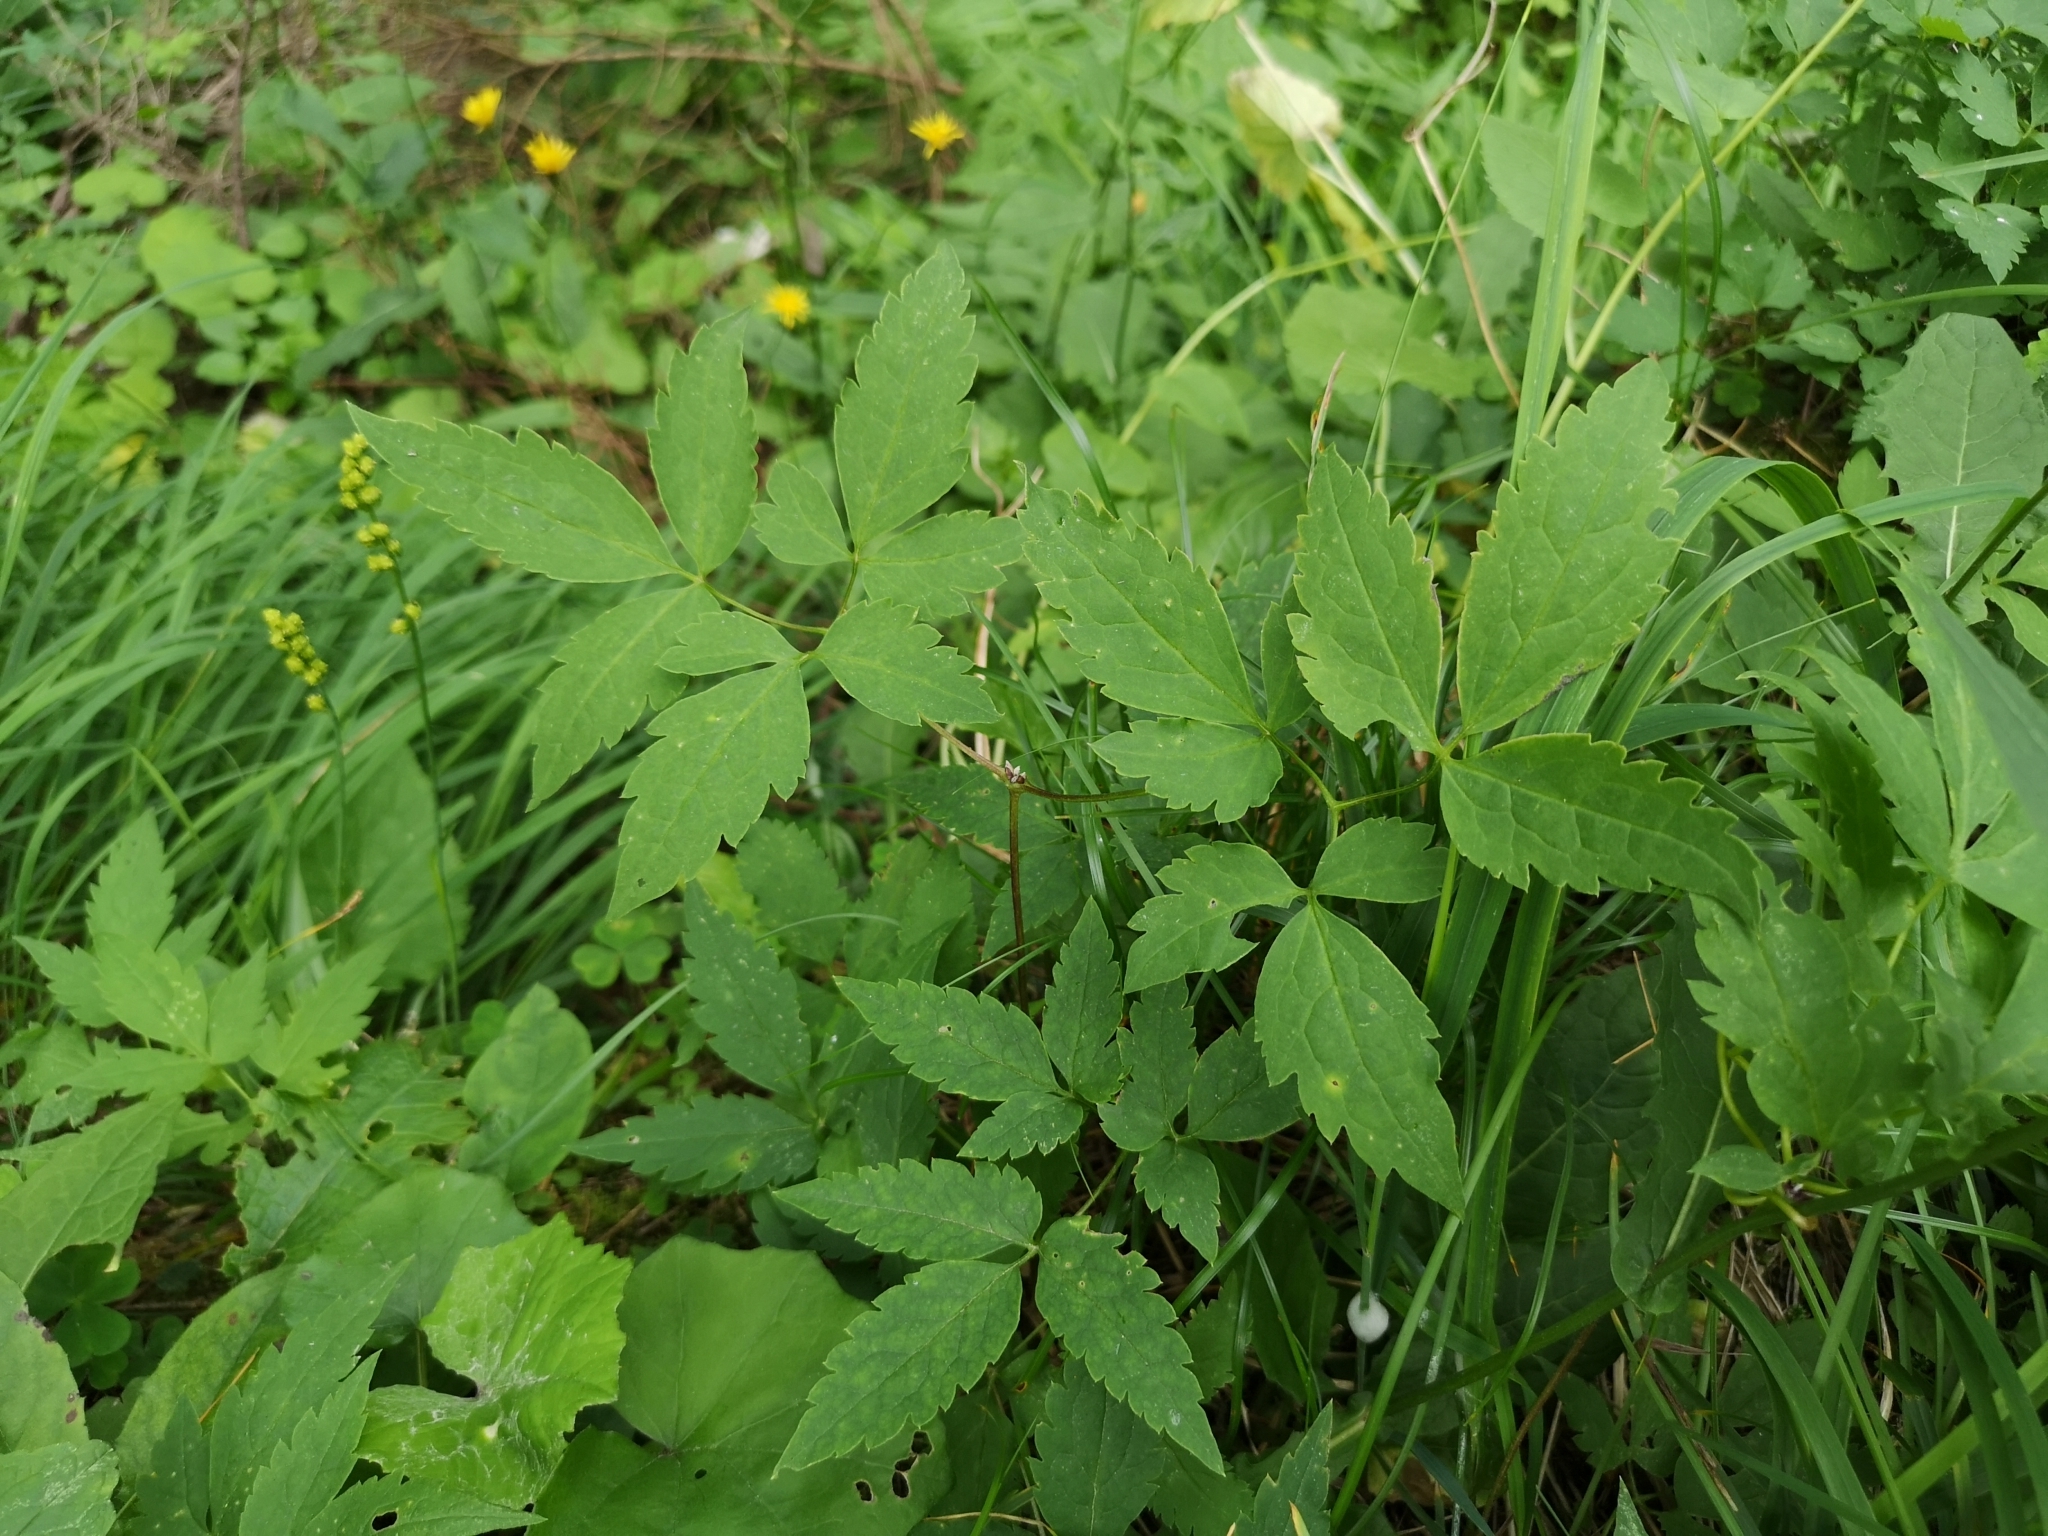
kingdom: Plantae
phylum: Tracheophyta
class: Magnoliopsida
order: Ranunculales
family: Ranunculaceae
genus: Clematis
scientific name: Clematis alpina
